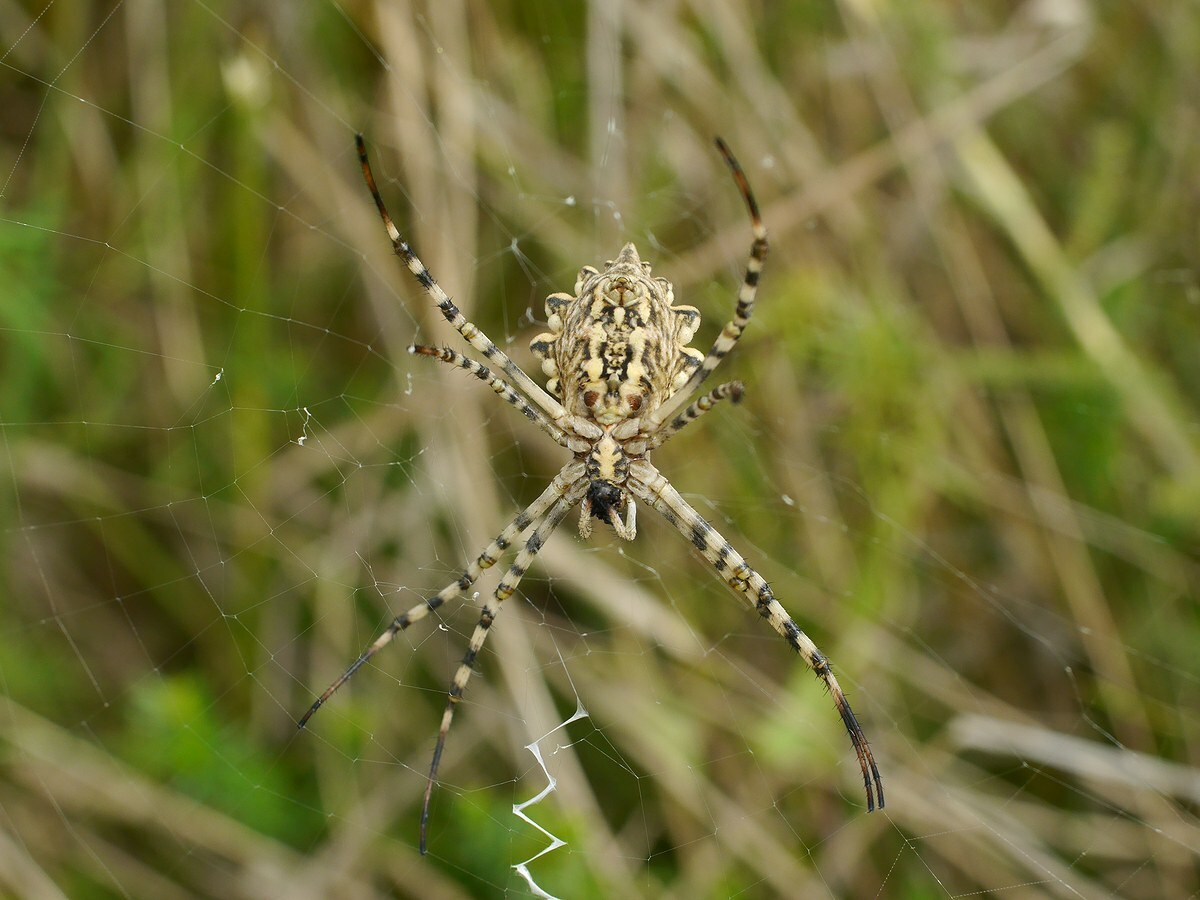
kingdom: Animalia
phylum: Arthropoda
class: Arachnida
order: Araneae
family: Araneidae
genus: Argiope
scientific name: Argiope lobata
